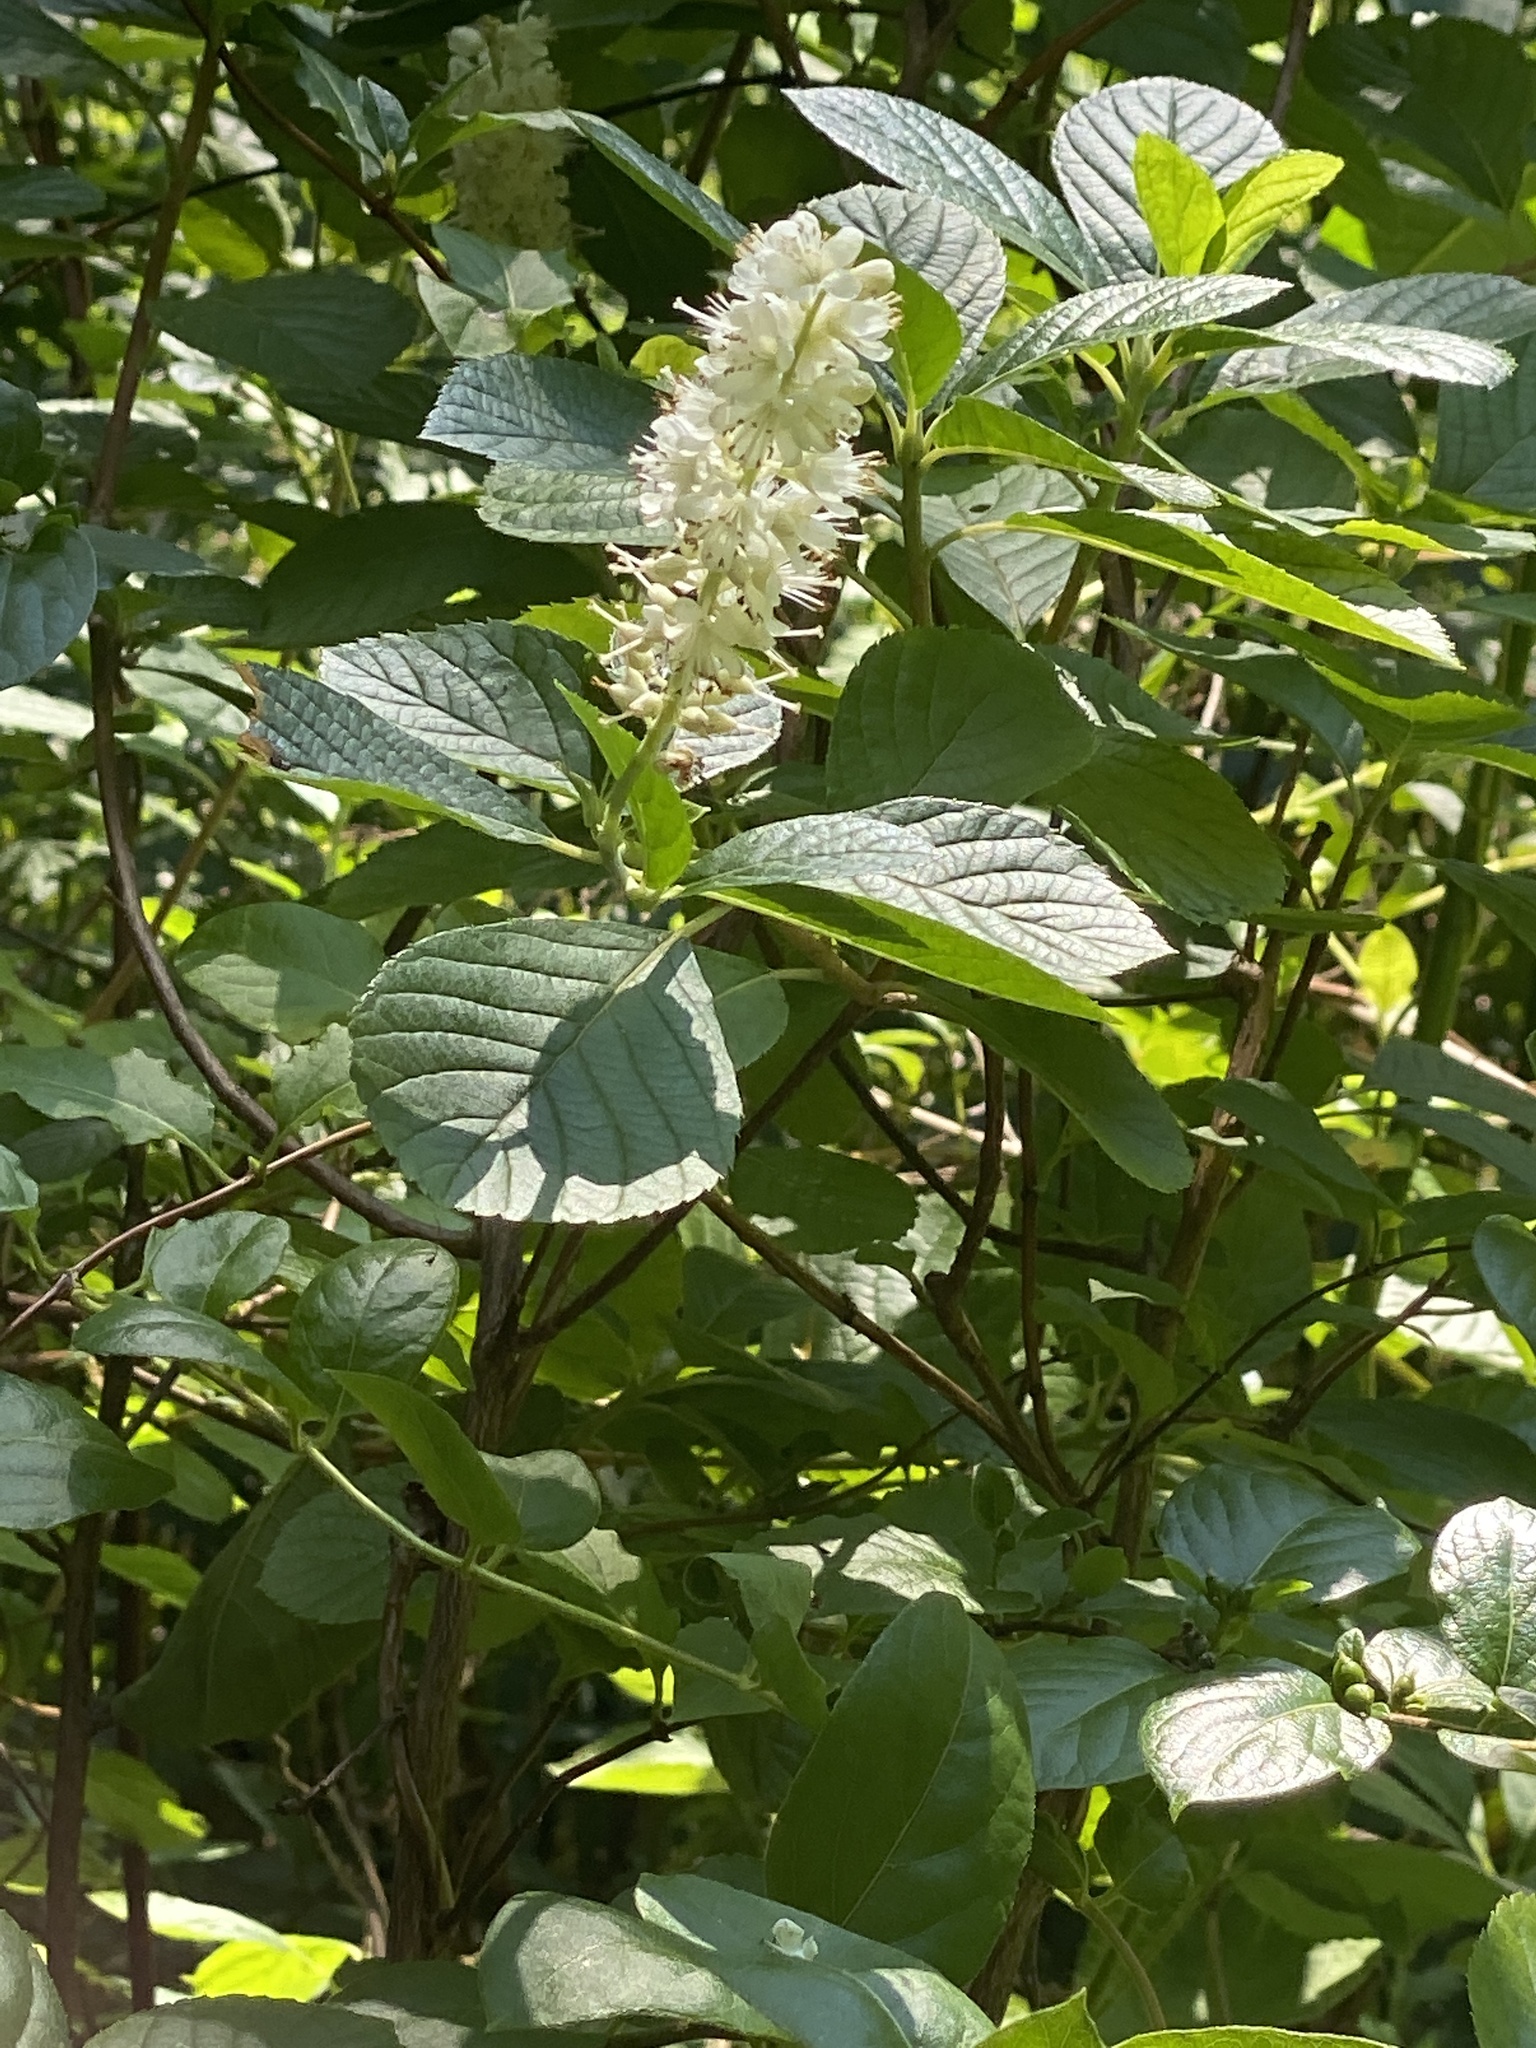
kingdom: Plantae
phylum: Tracheophyta
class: Magnoliopsida
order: Ericales
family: Clethraceae
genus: Clethra
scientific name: Clethra alnifolia
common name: Sweet pepperbush
